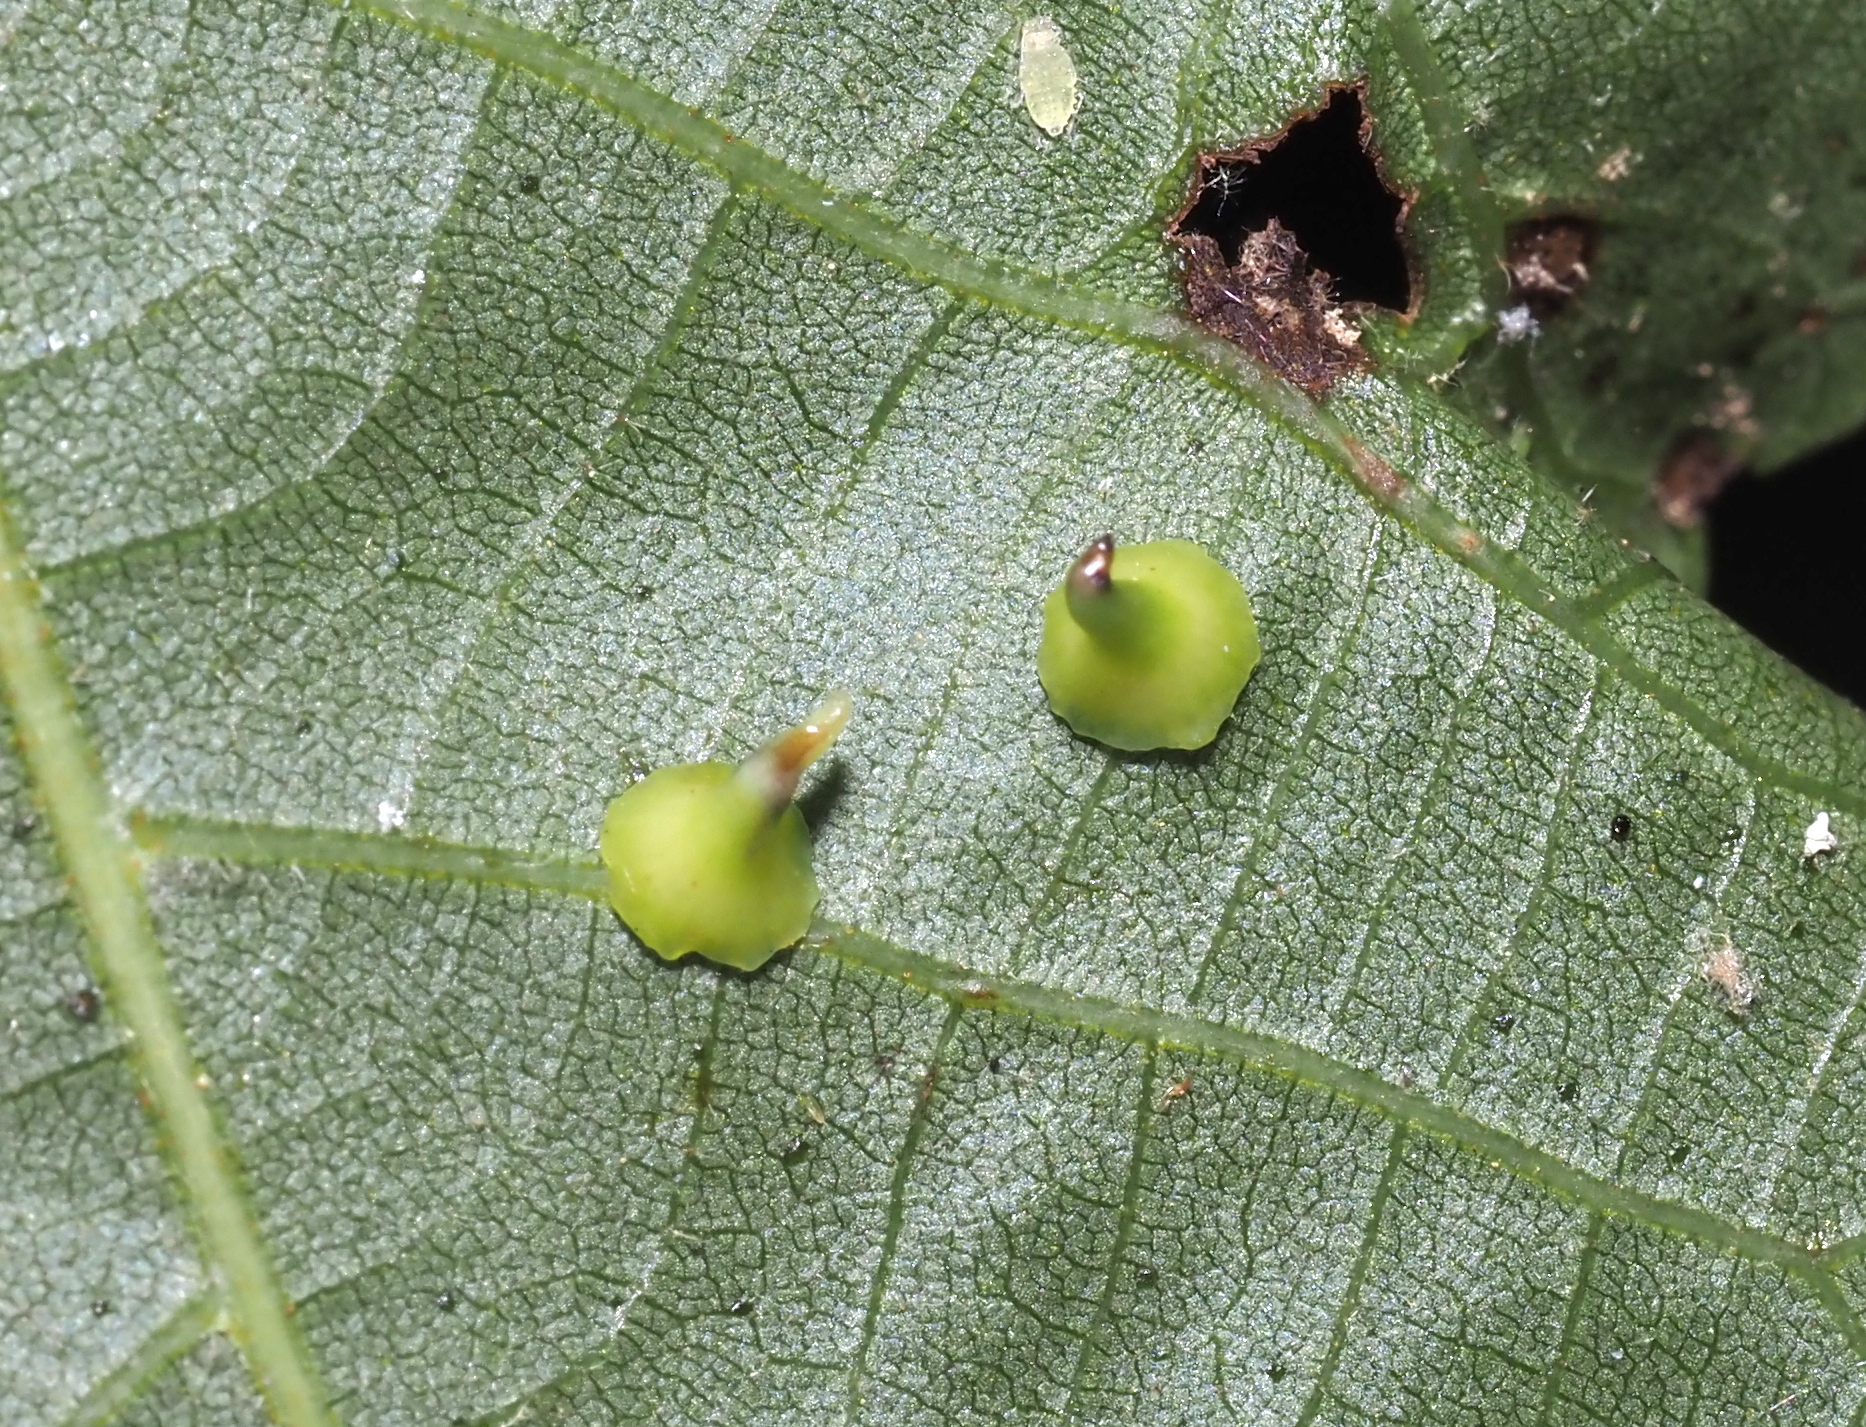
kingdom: Animalia
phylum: Arthropoda
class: Insecta
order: Diptera
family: Cecidomyiidae
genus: Caryomyia
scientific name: Caryomyia stellata
